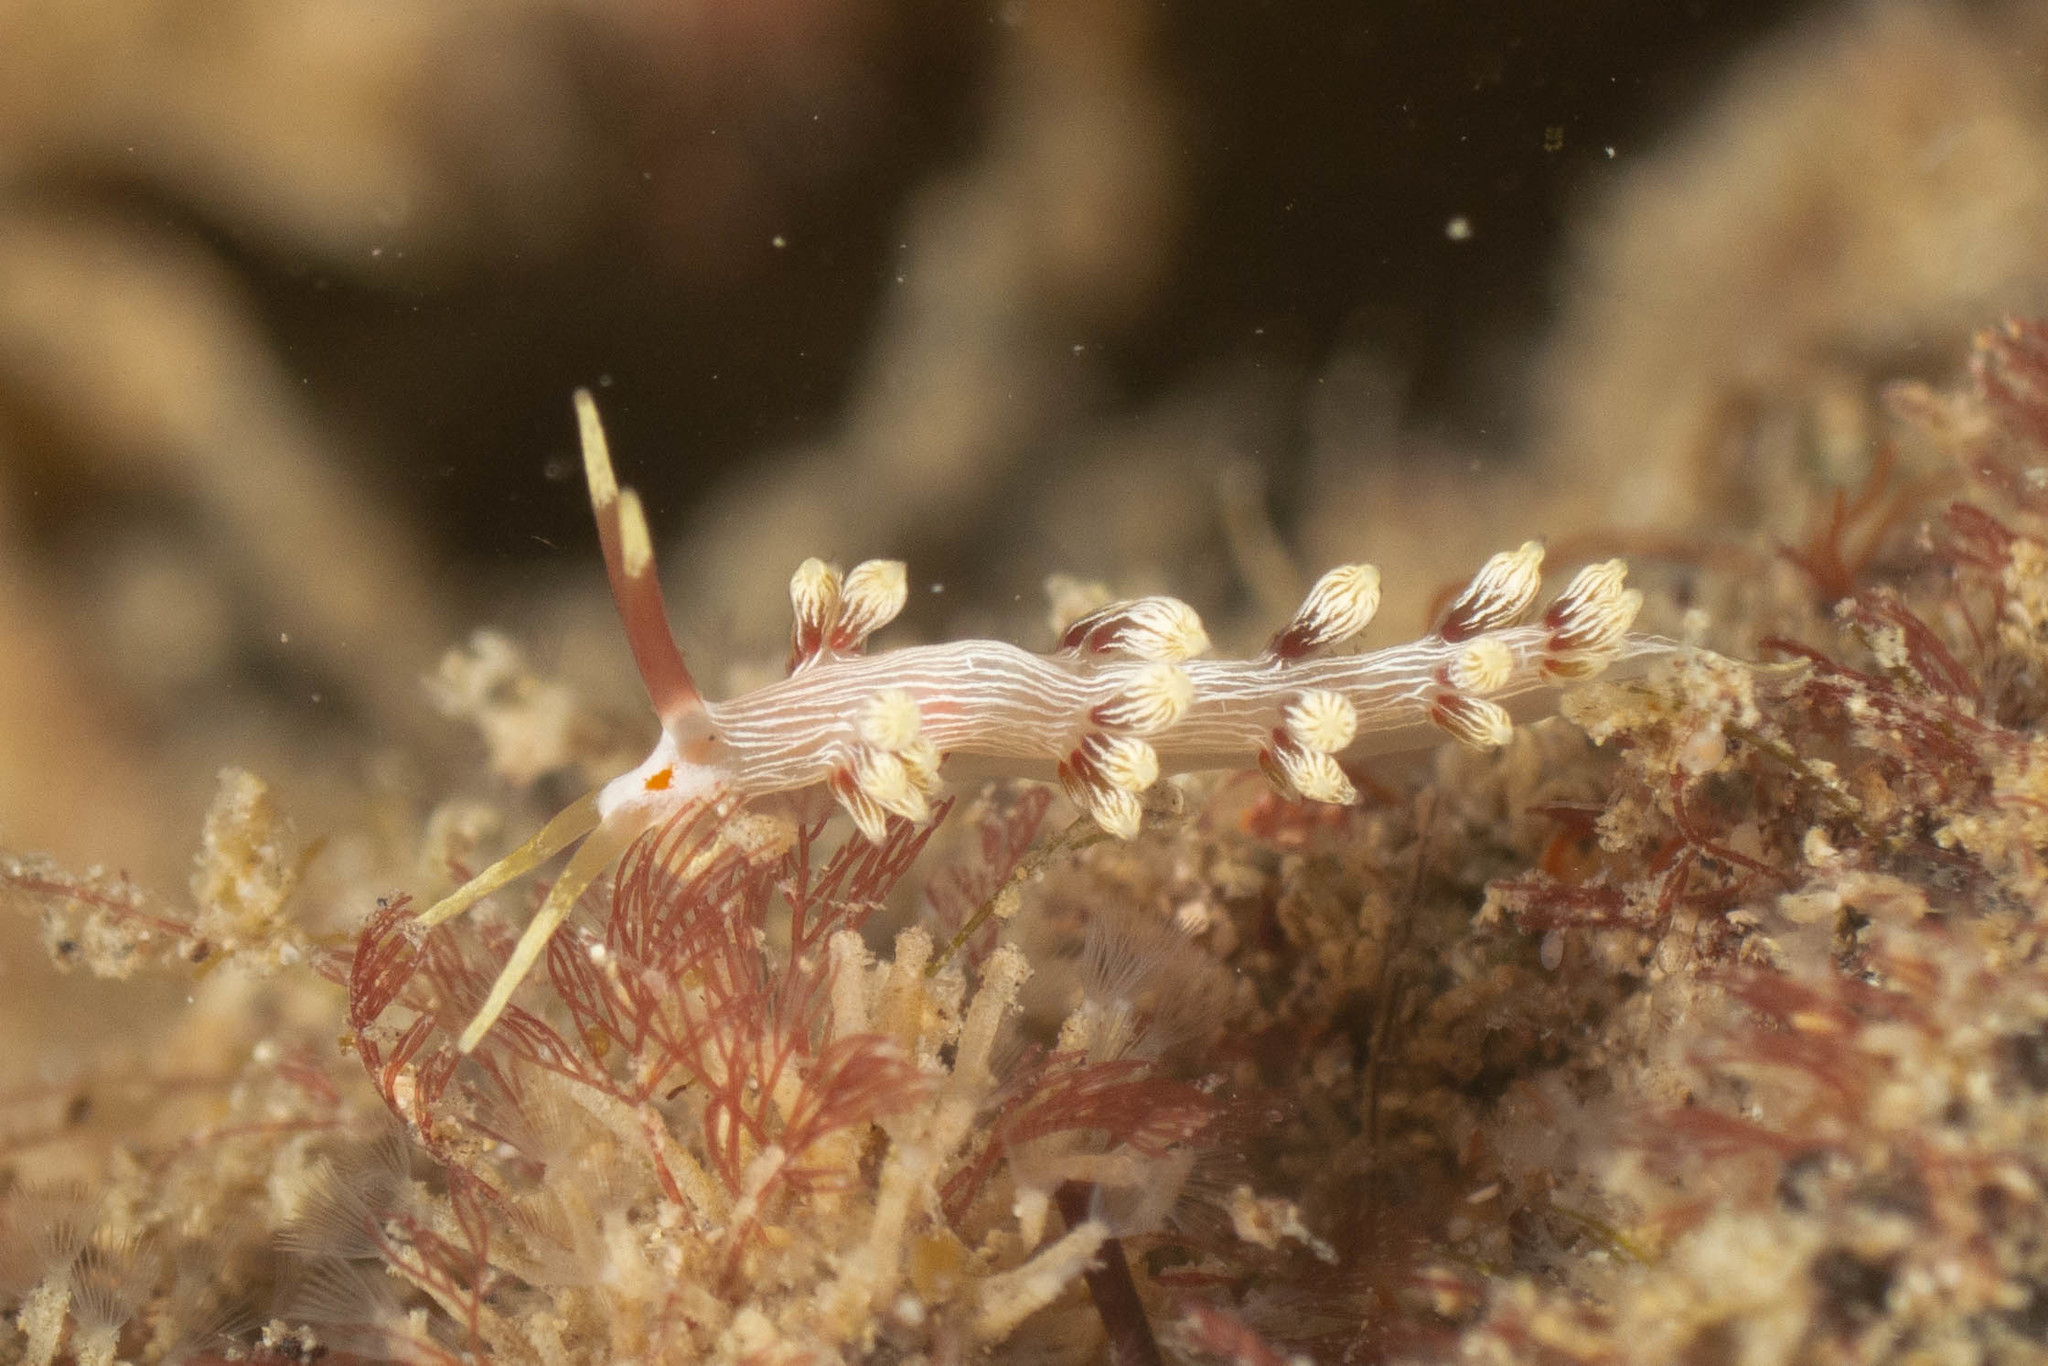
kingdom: Animalia
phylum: Mollusca
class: Gastropoda
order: Nudibranchia
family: Facelinidae
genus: Cratena
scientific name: Cratena lineata
